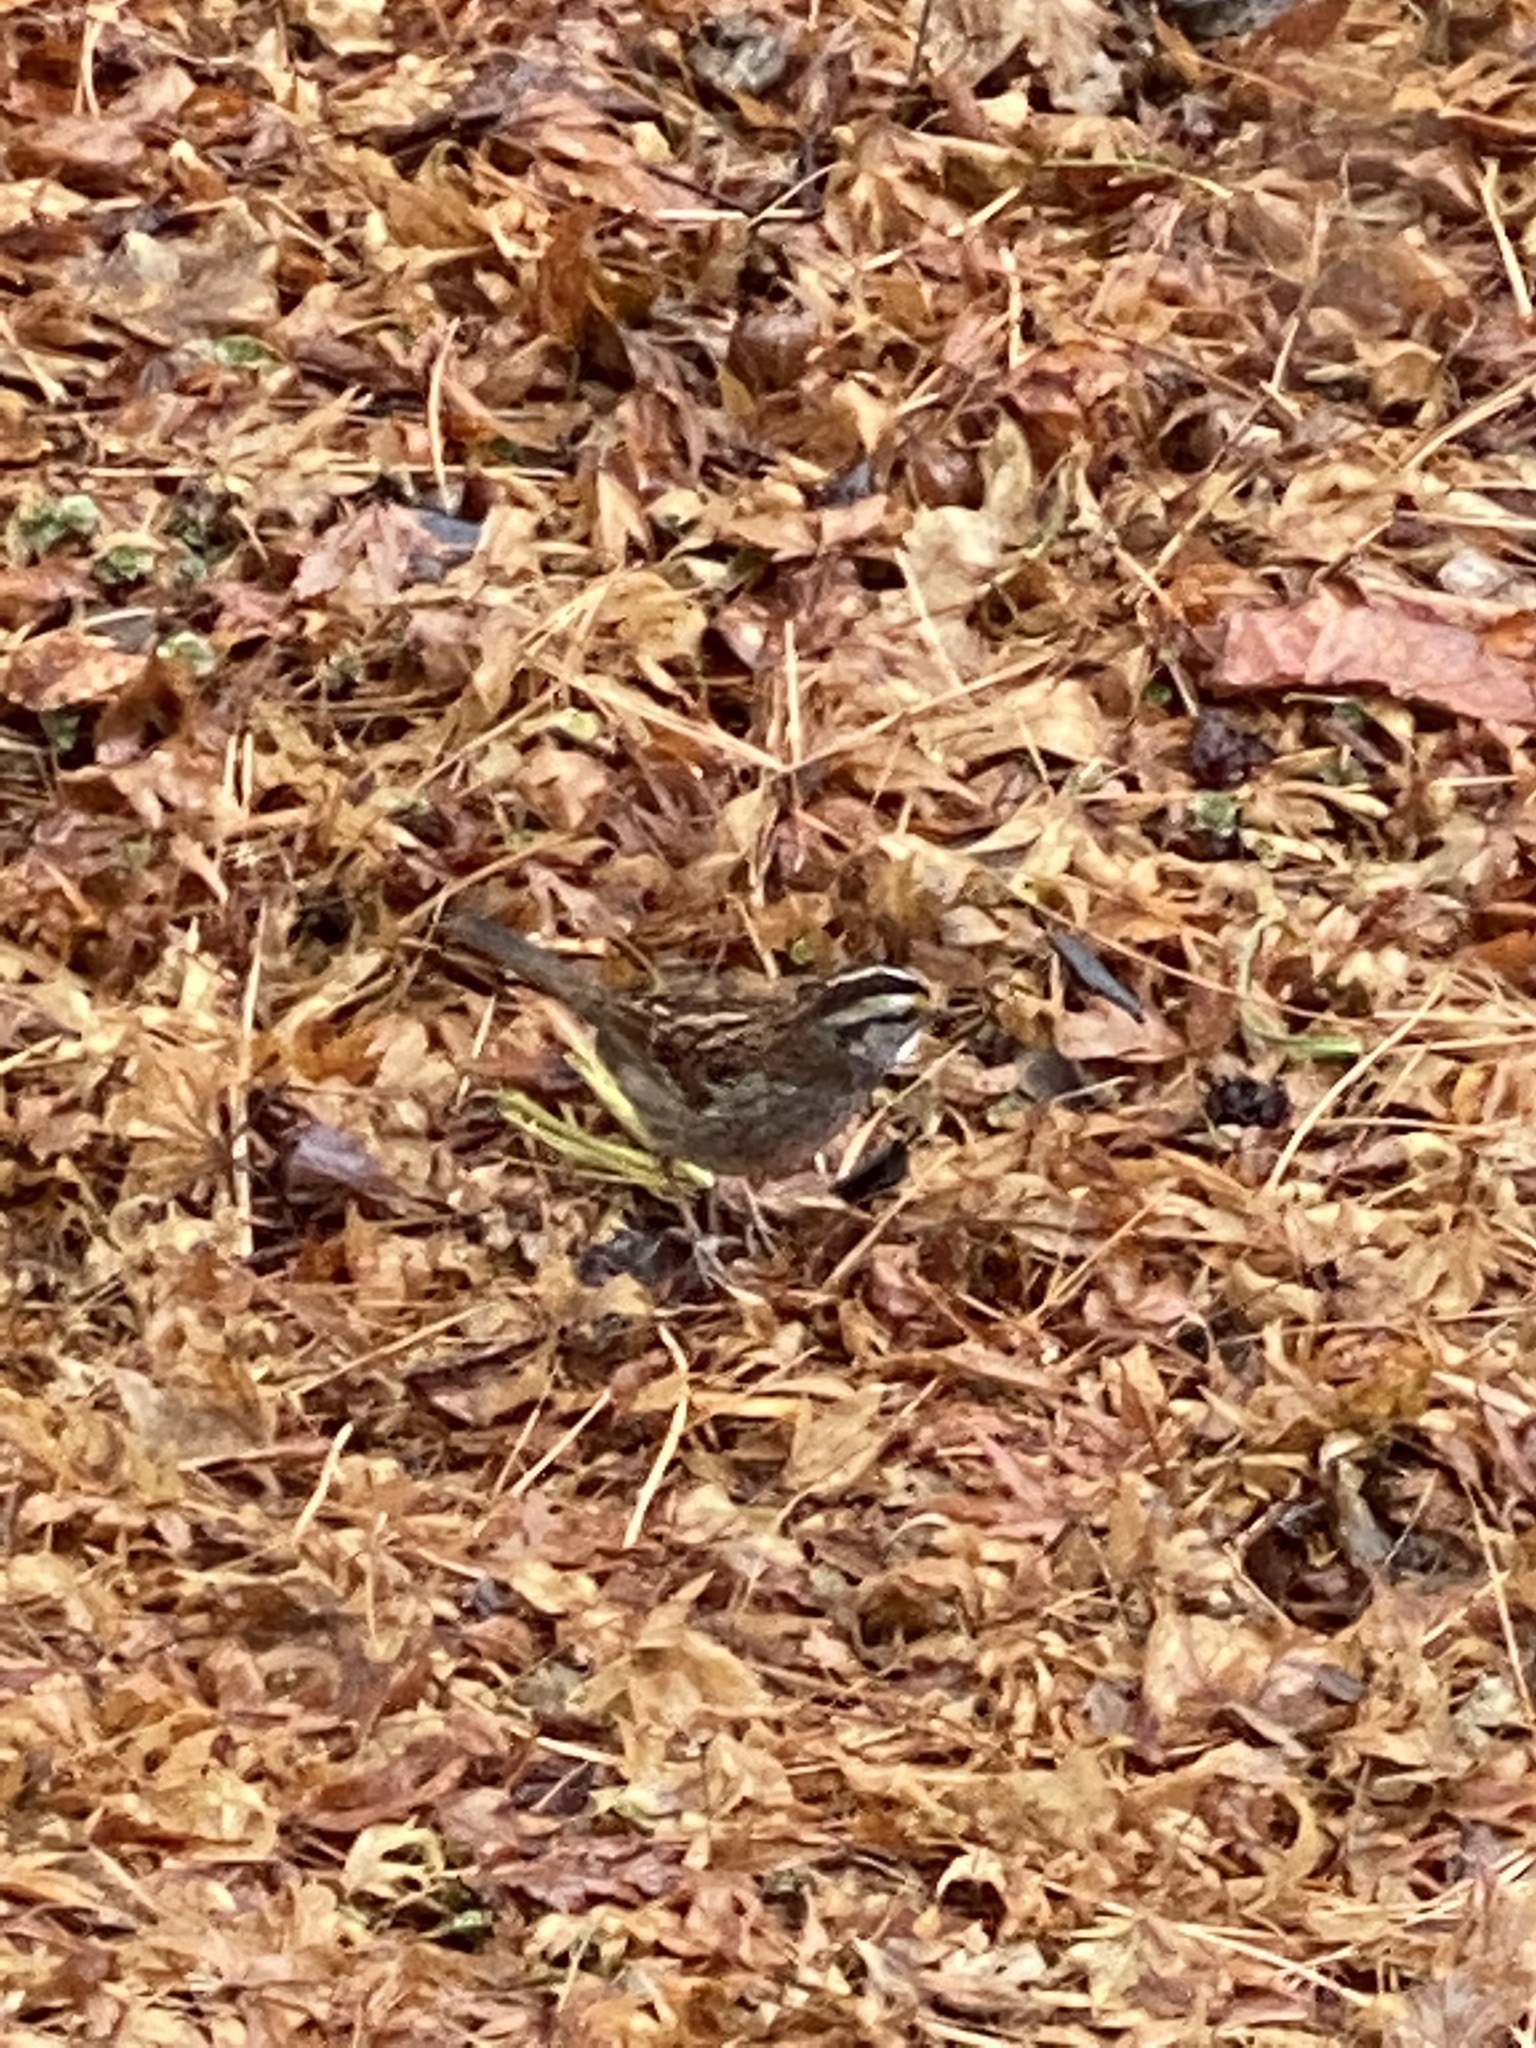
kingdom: Animalia
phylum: Chordata
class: Aves
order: Passeriformes
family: Passerellidae
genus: Zonotrichia
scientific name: Zonotrichia albicollis
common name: White-throated sparrow
